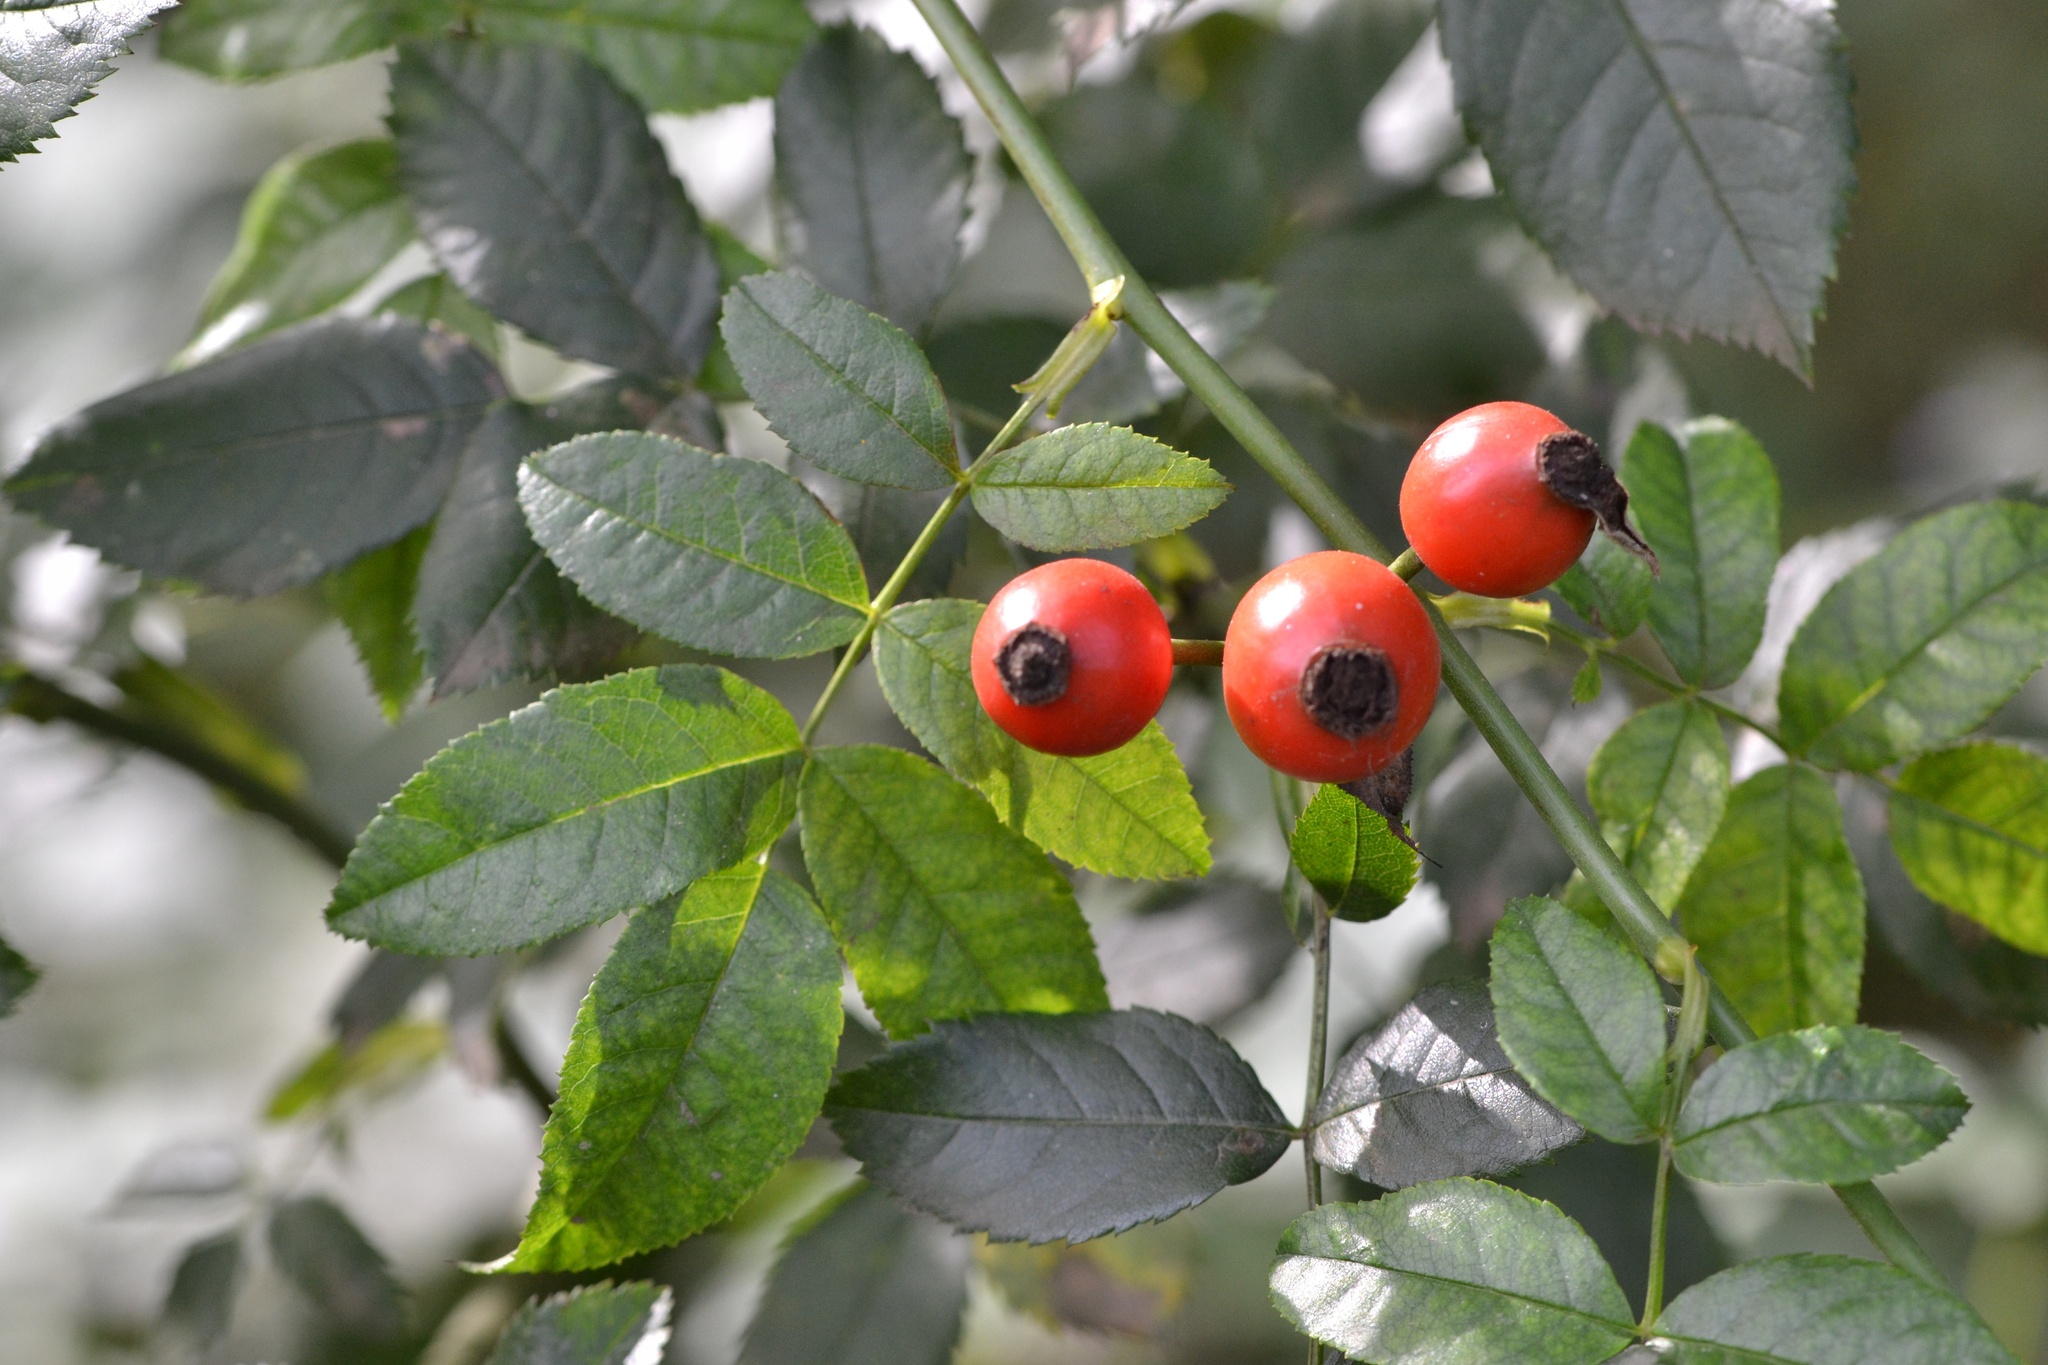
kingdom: Plantae
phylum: Tracheophyta
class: Magnoliopsida
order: Rosales
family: Rosaceae
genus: Rosa
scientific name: Rosa canina
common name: Dog rose
